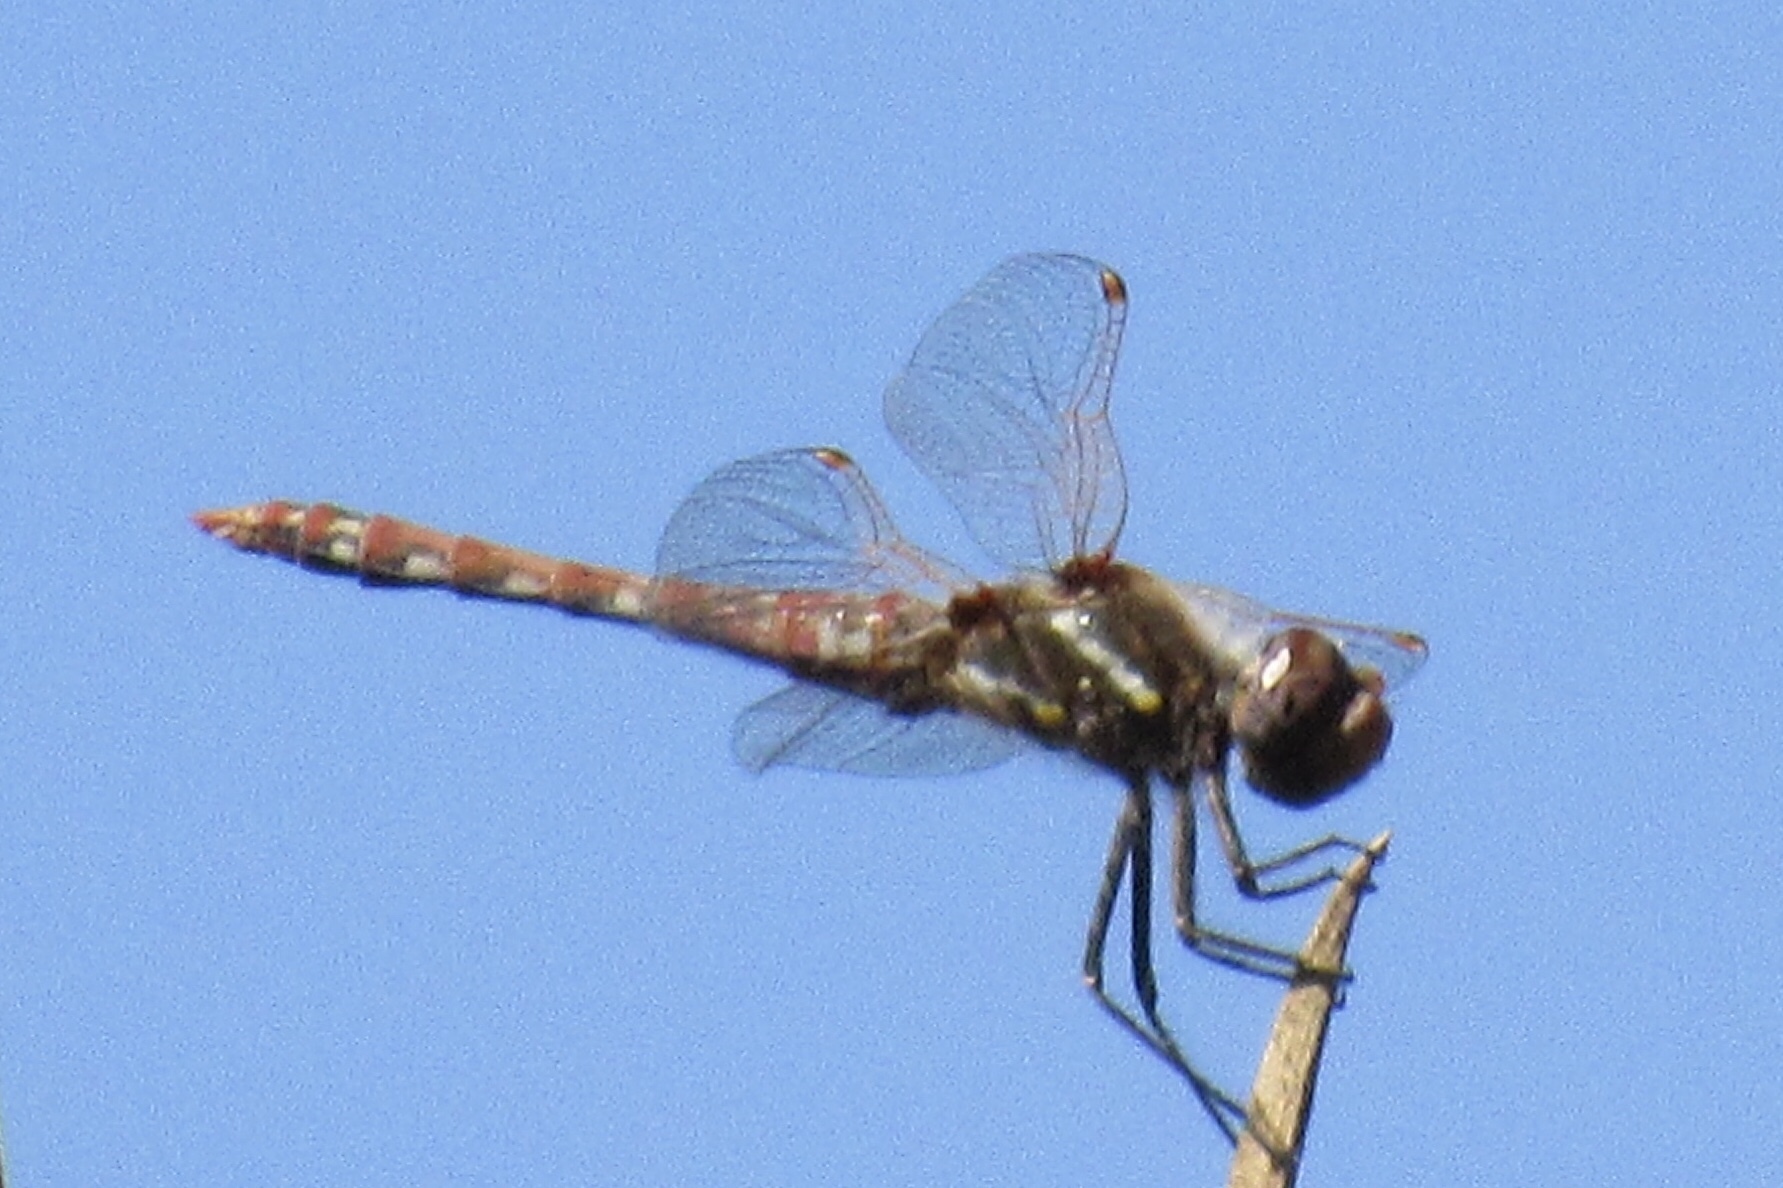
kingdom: Animalia
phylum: Arthropoda
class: Insecta
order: Odonata
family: Libellulidae
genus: Sympetrum
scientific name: Sympetrum corruptum
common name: Variegated meadowhawk
